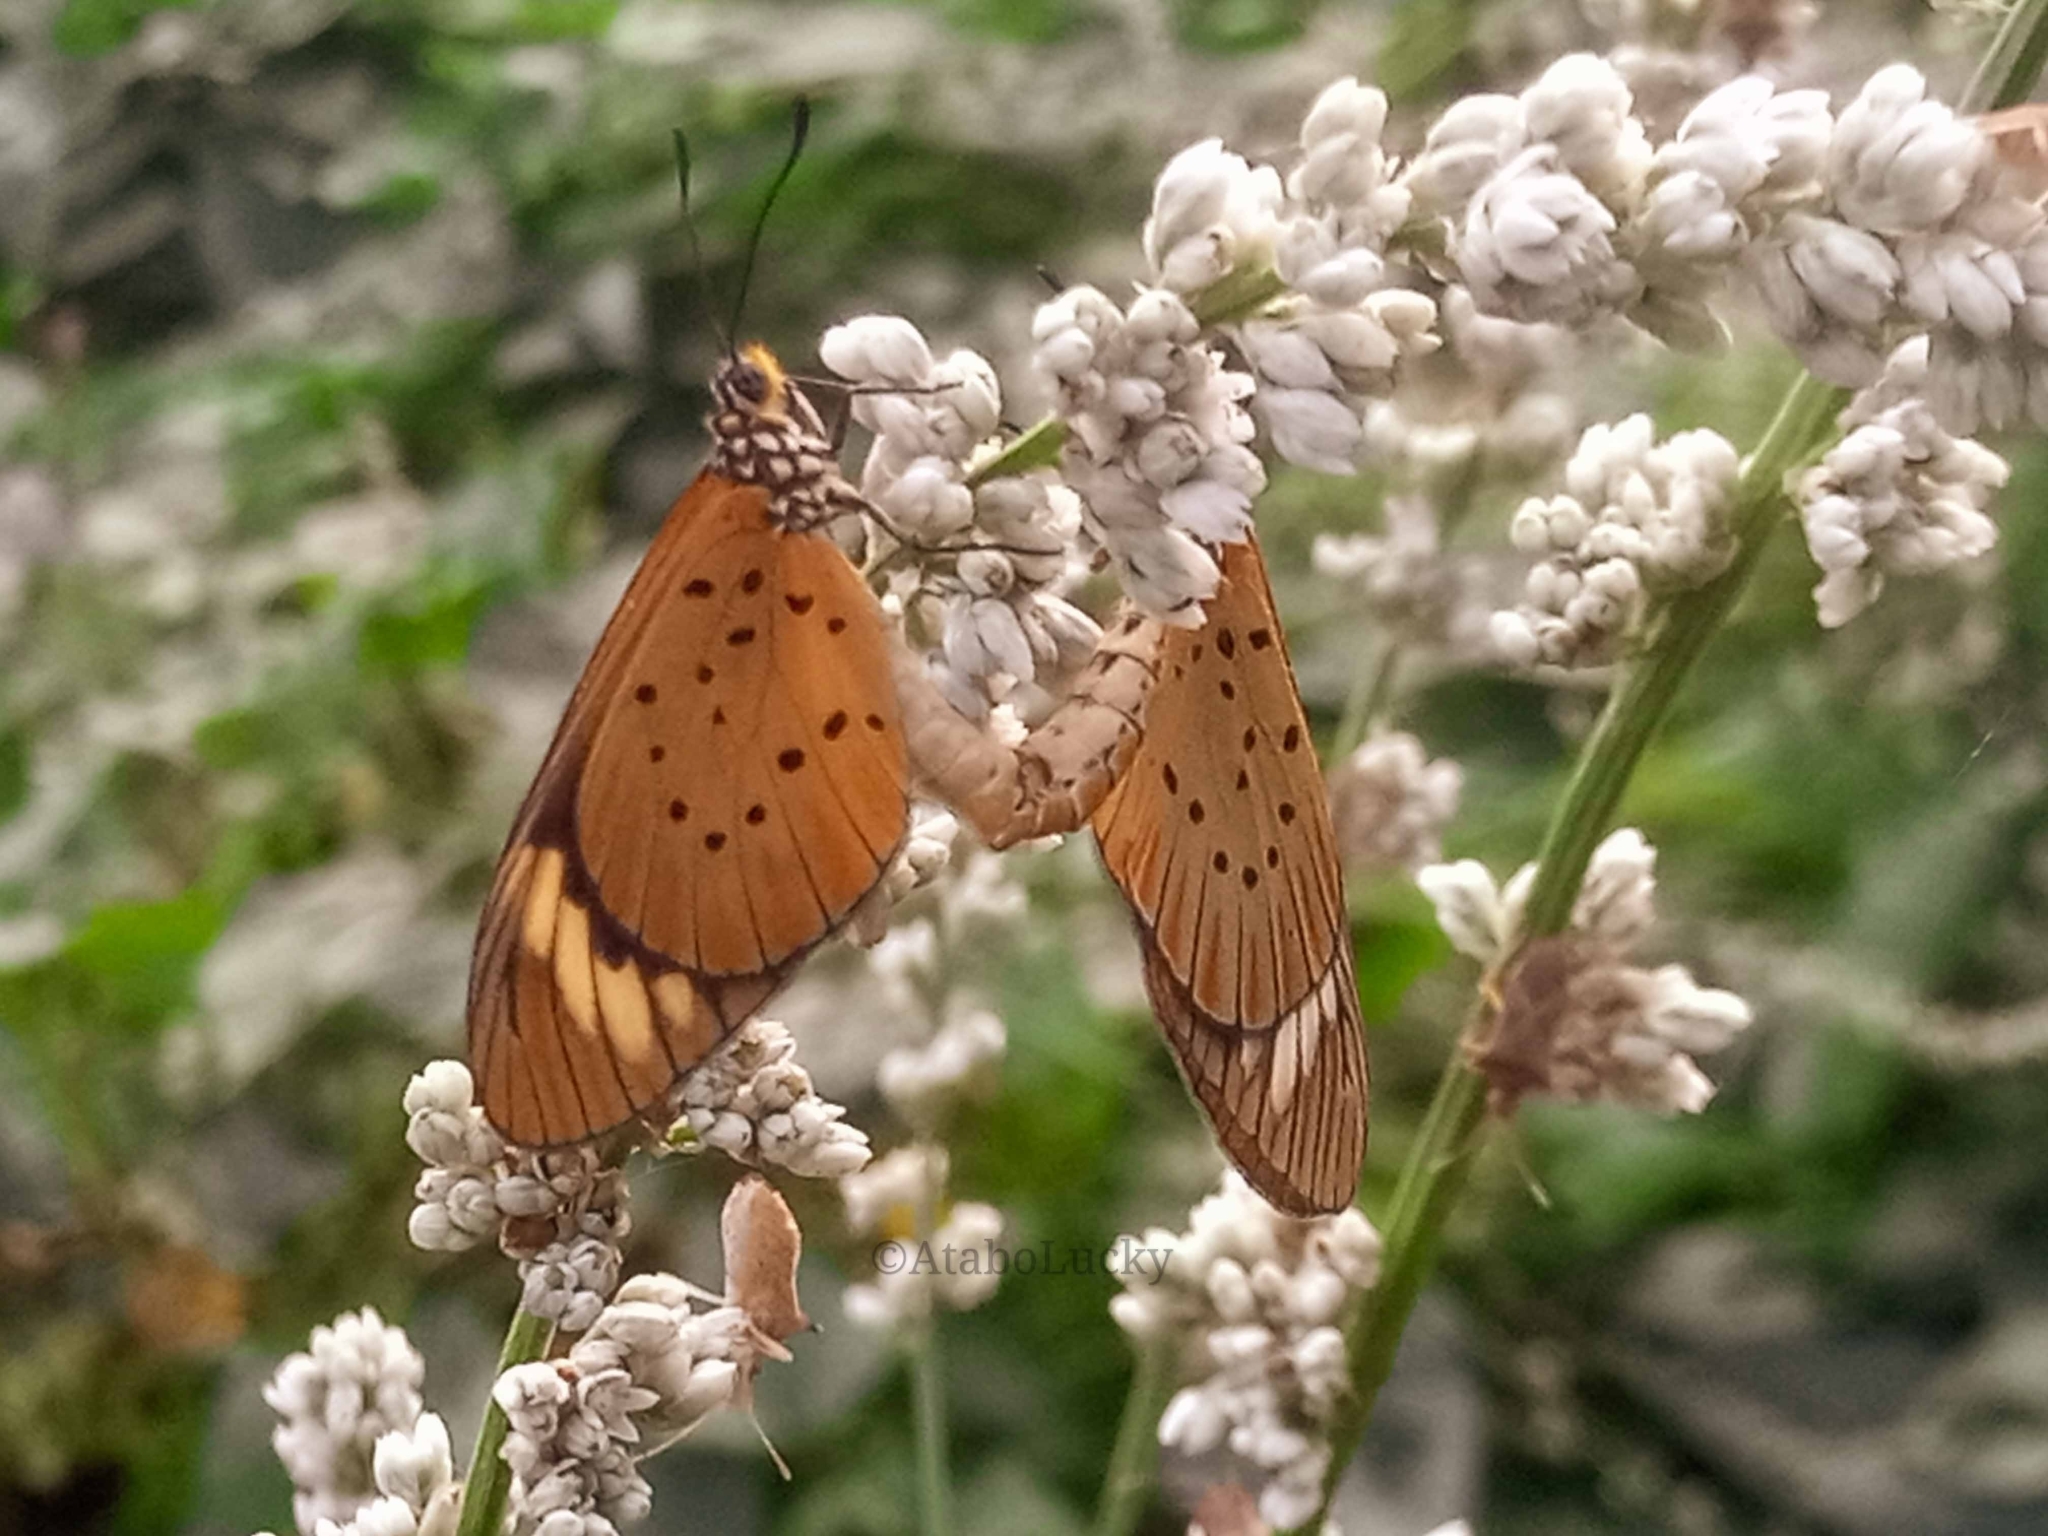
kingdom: Animalia
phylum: Arthropoda
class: Insecta
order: Lepidoptera
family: Nymphalidae
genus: Acraea
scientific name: Acraea Telchinia encedon
